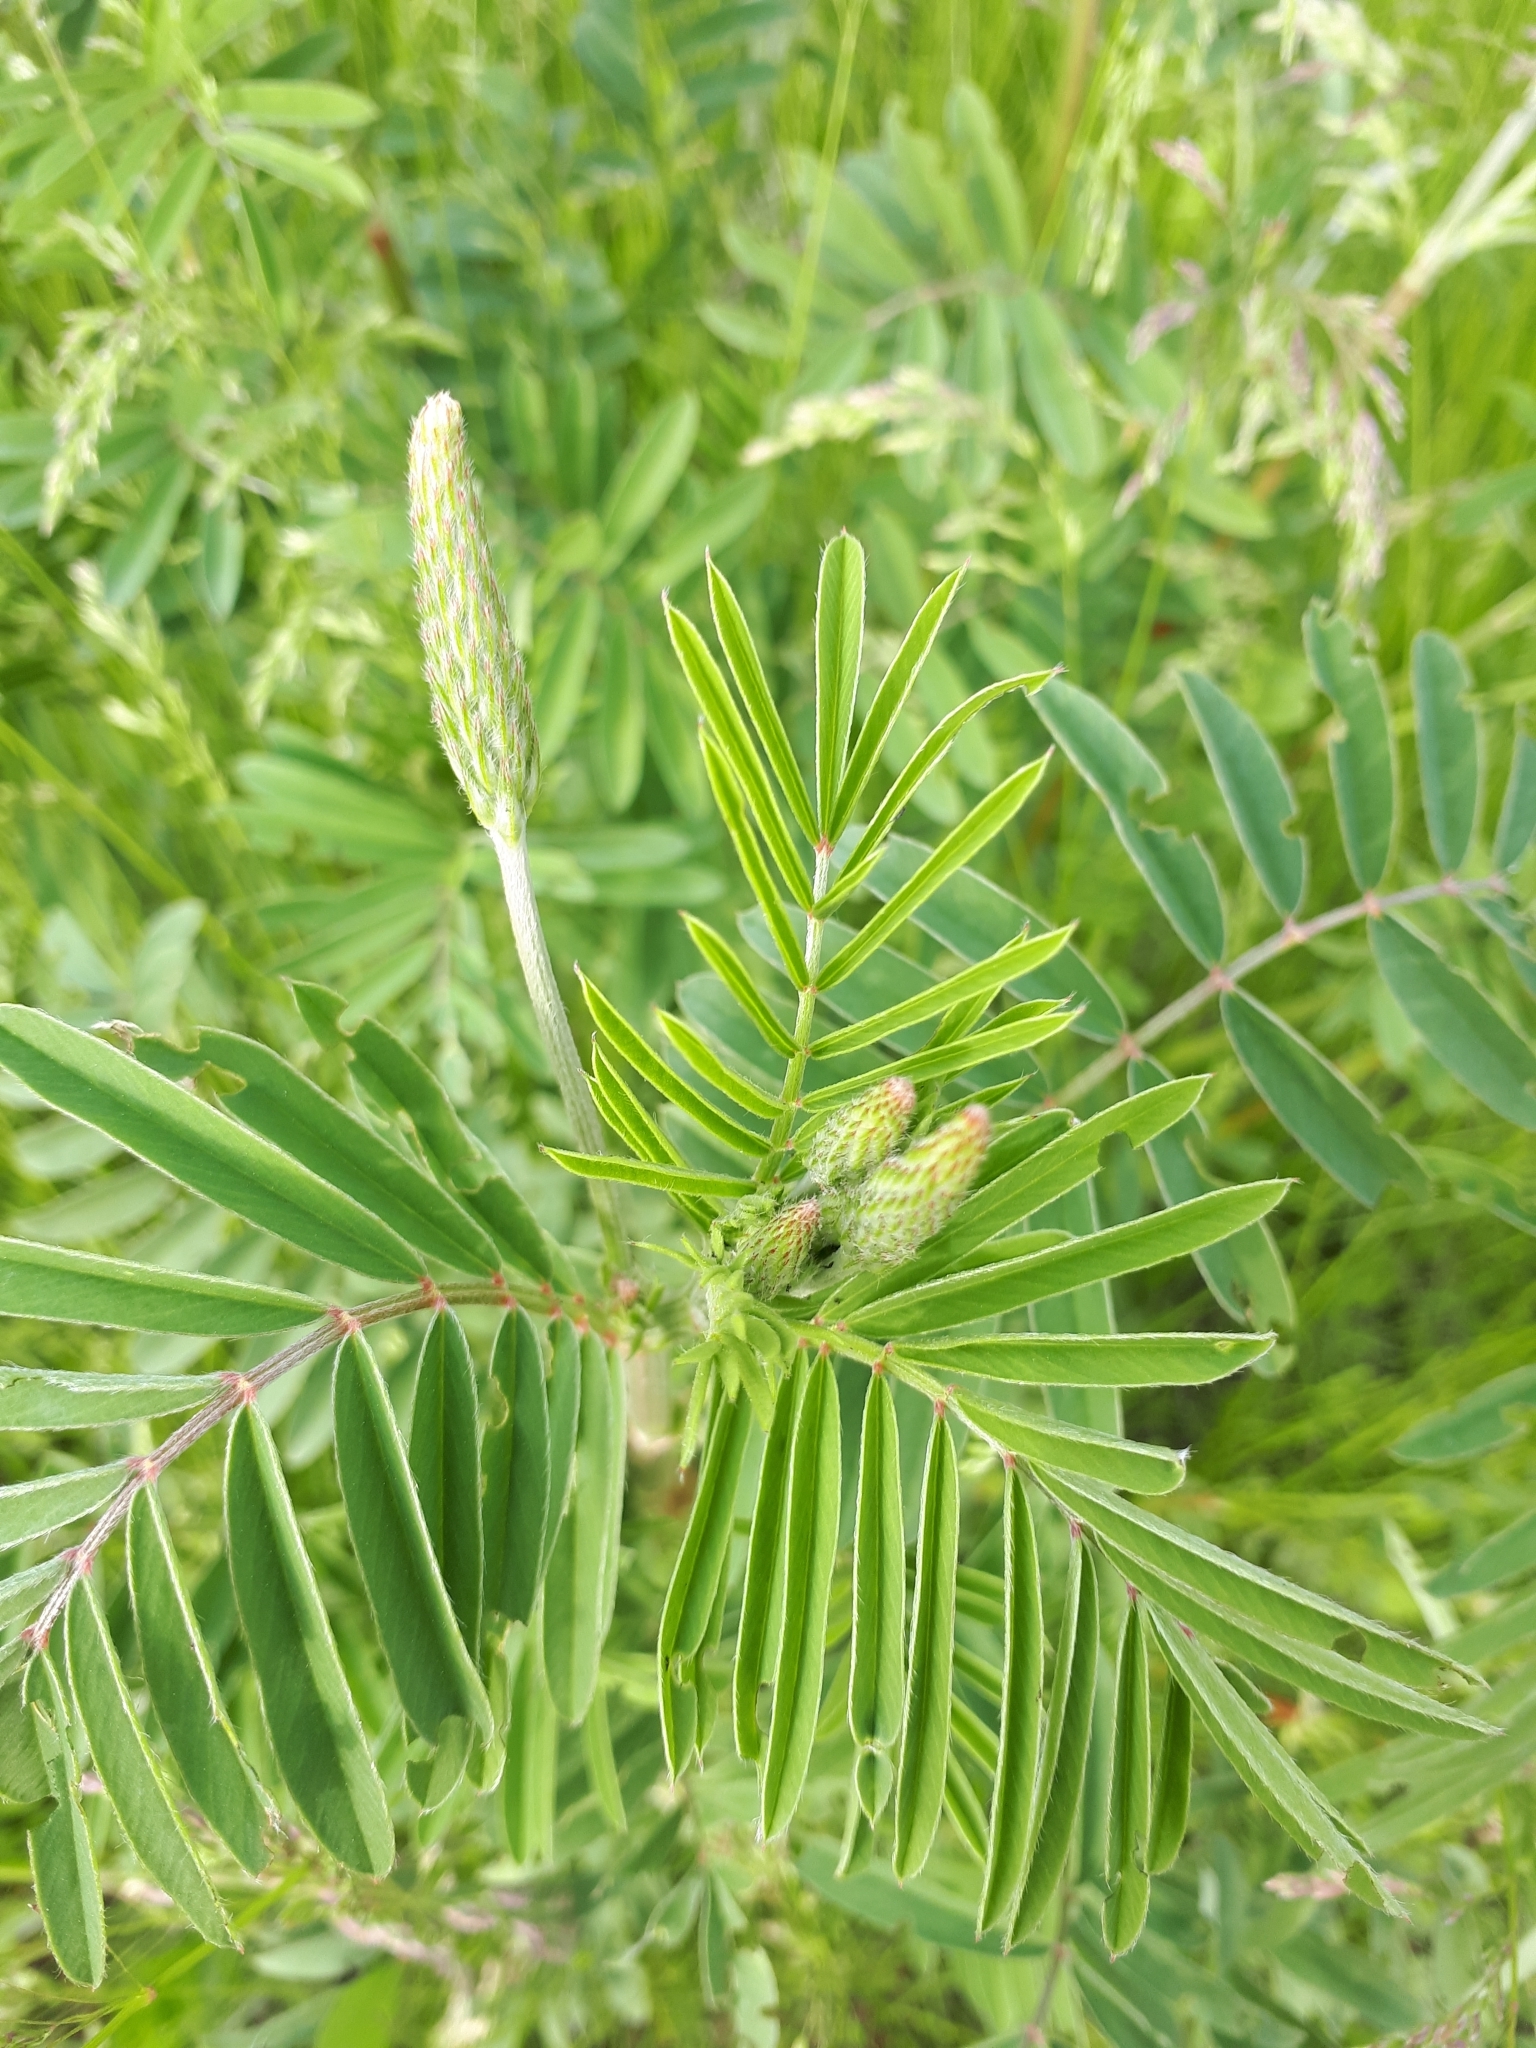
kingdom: Plantae
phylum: Tracheophyta
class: Magnoliopsida
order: Fabales
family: Fabaceae
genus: Onobrychis
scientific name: Onobrychis viciifolia
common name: Sainfoin
